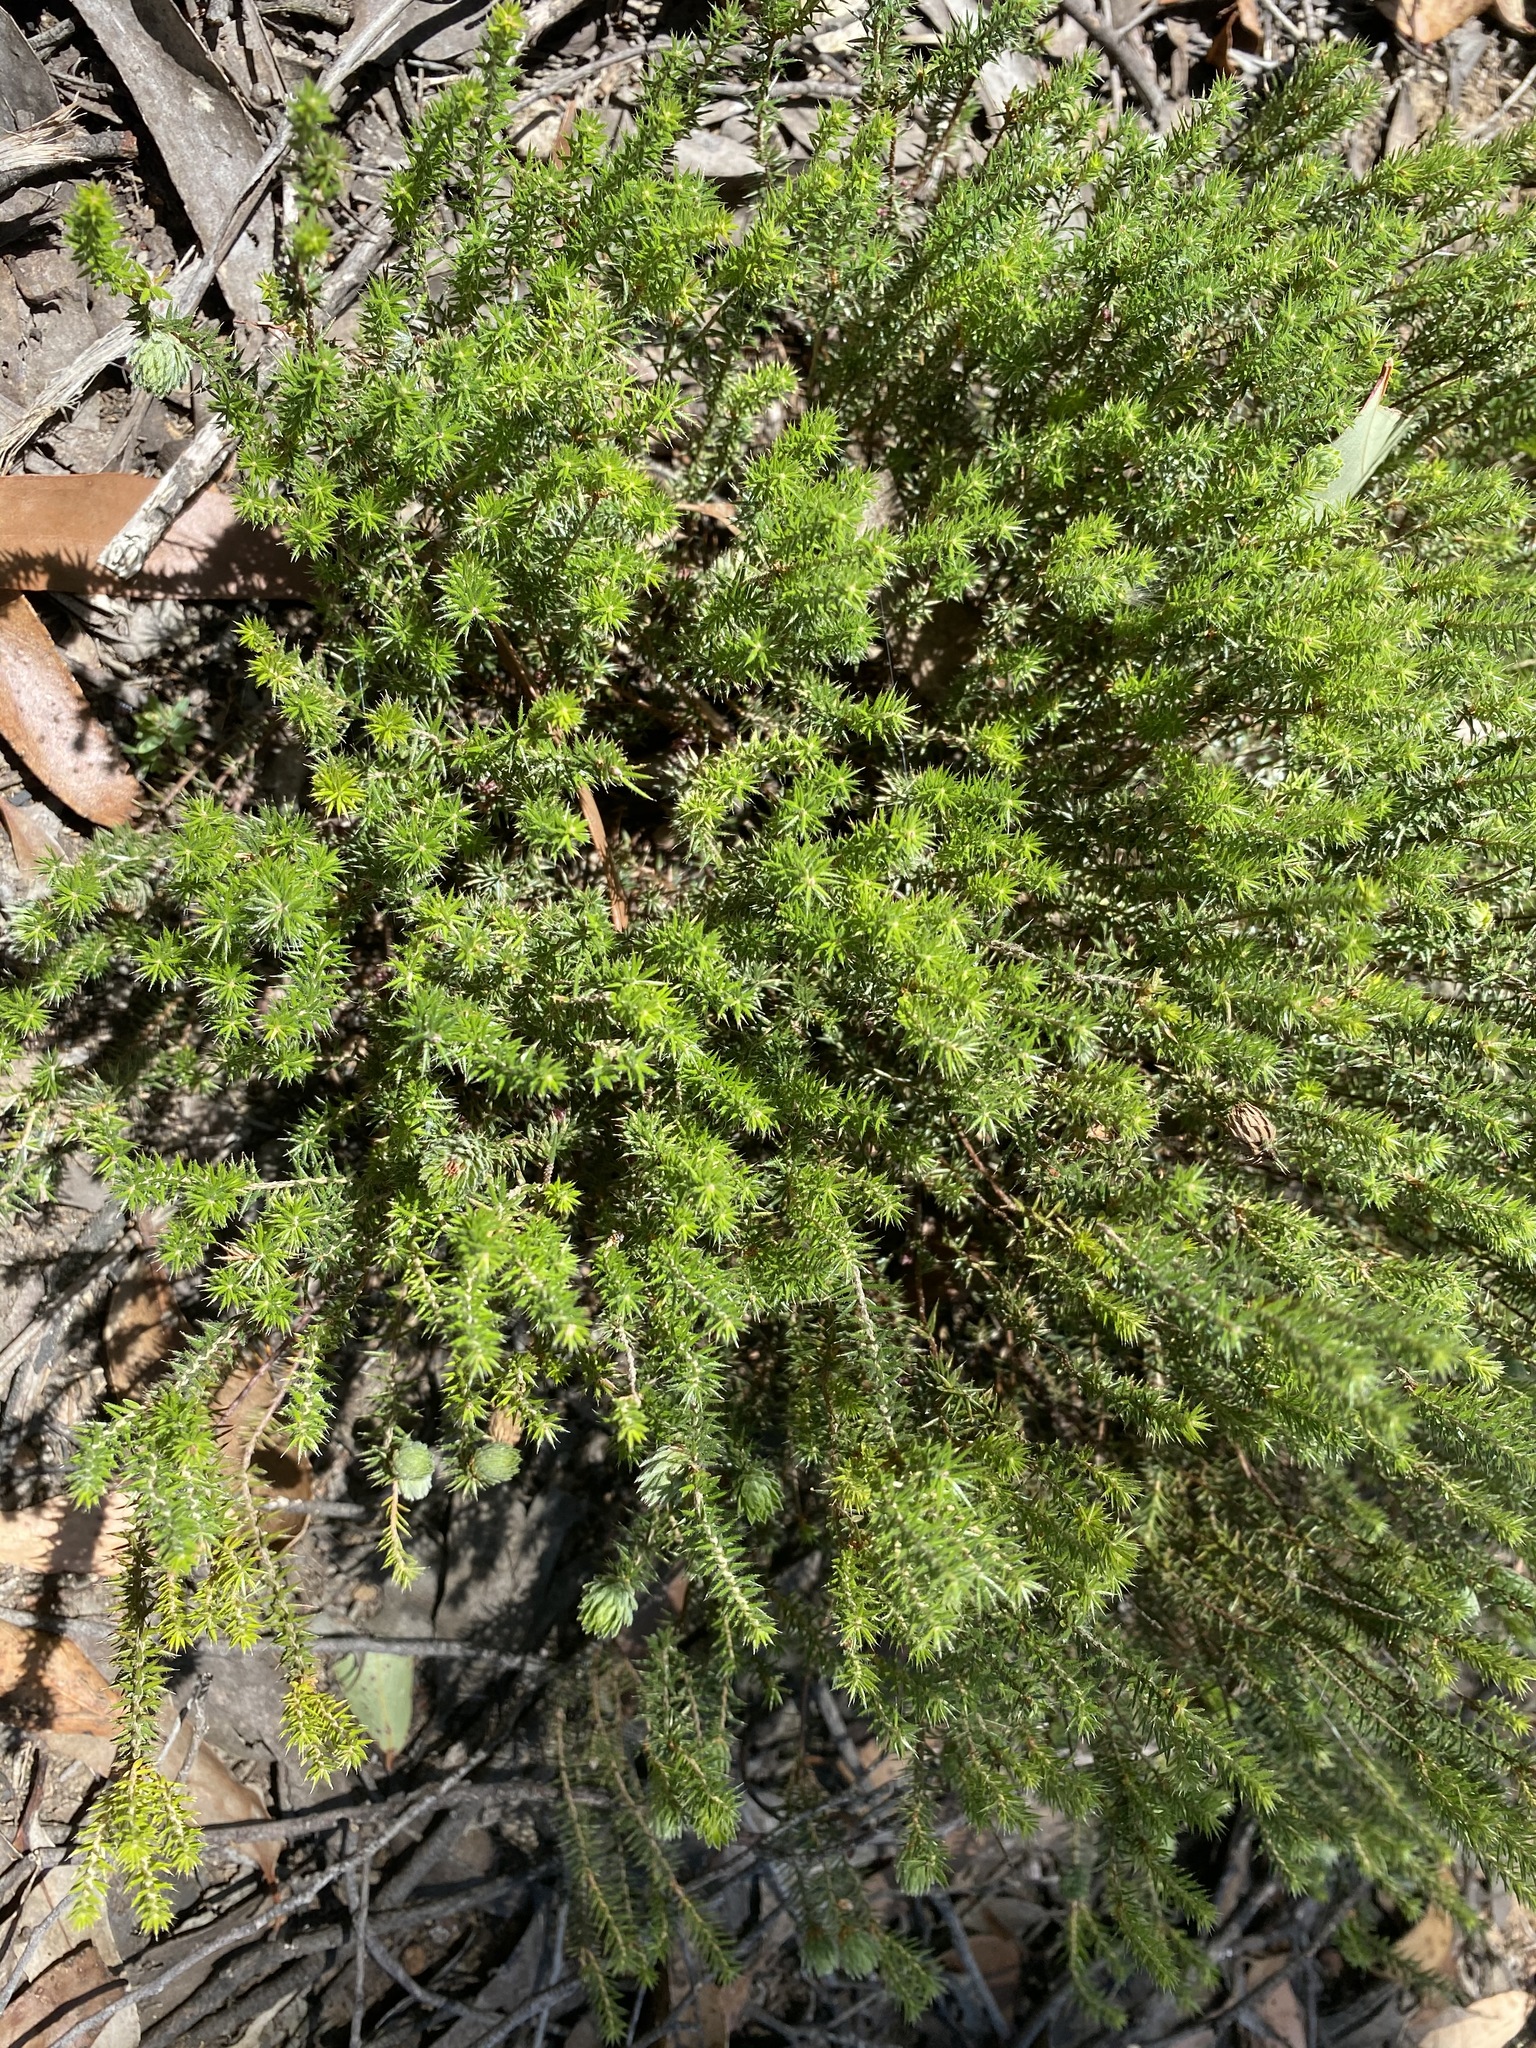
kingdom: Plantae
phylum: Tracheophyta
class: Magnoliopsida
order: Ericales
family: Ericaceae
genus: Acrotriche
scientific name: Acrotriche serrulata
